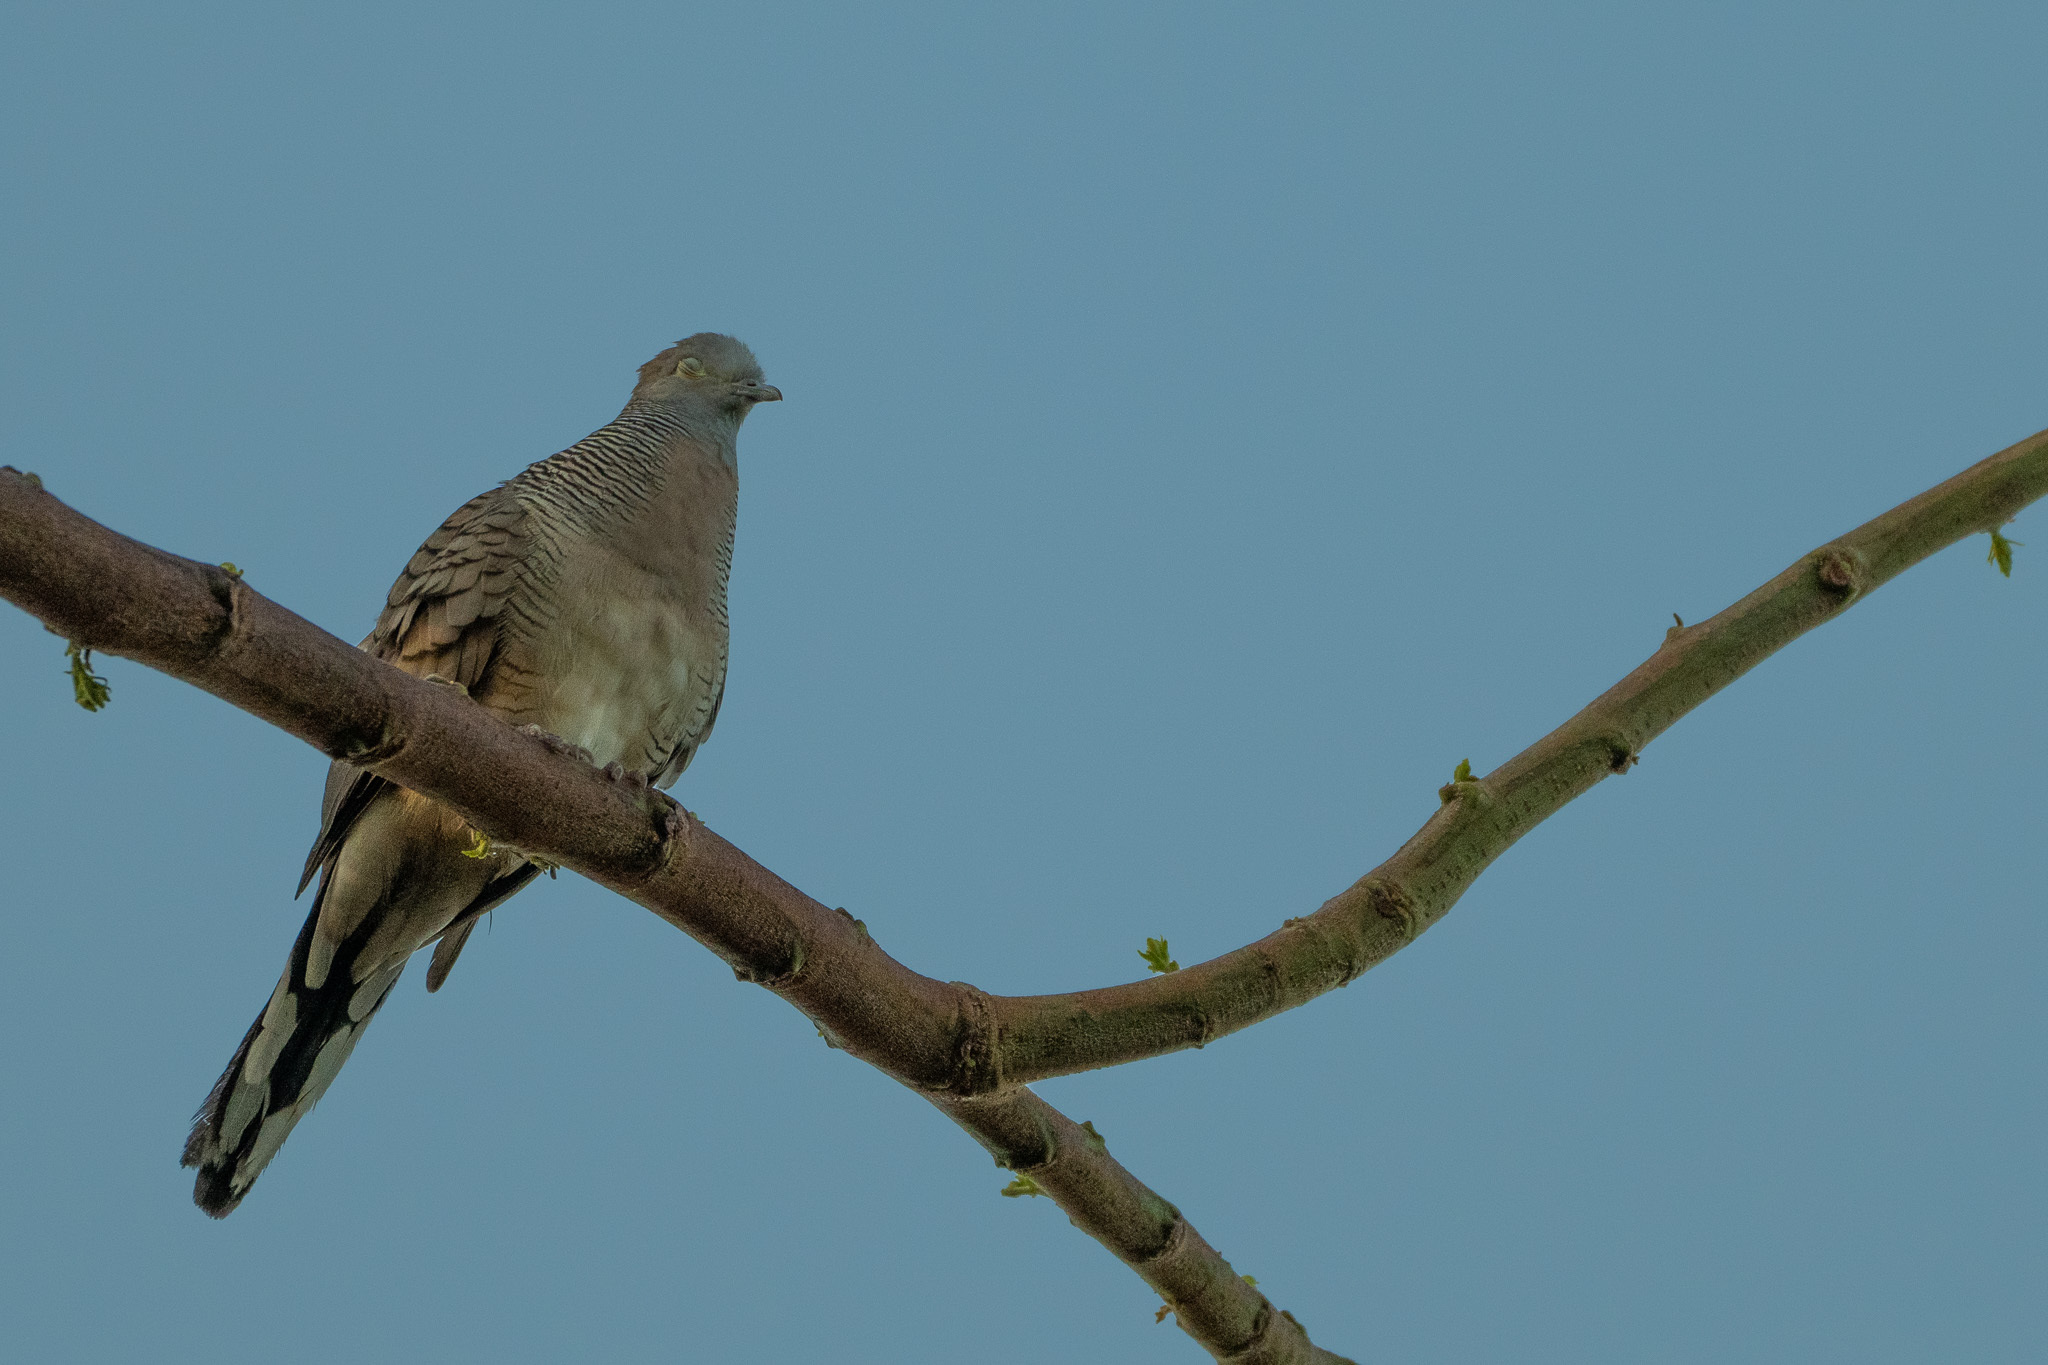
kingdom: Animalia
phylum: Chordata
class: Aves
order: Columbiformes
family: Columbidae
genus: Geopelia
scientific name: Geopelia striata
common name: Zebra dove
